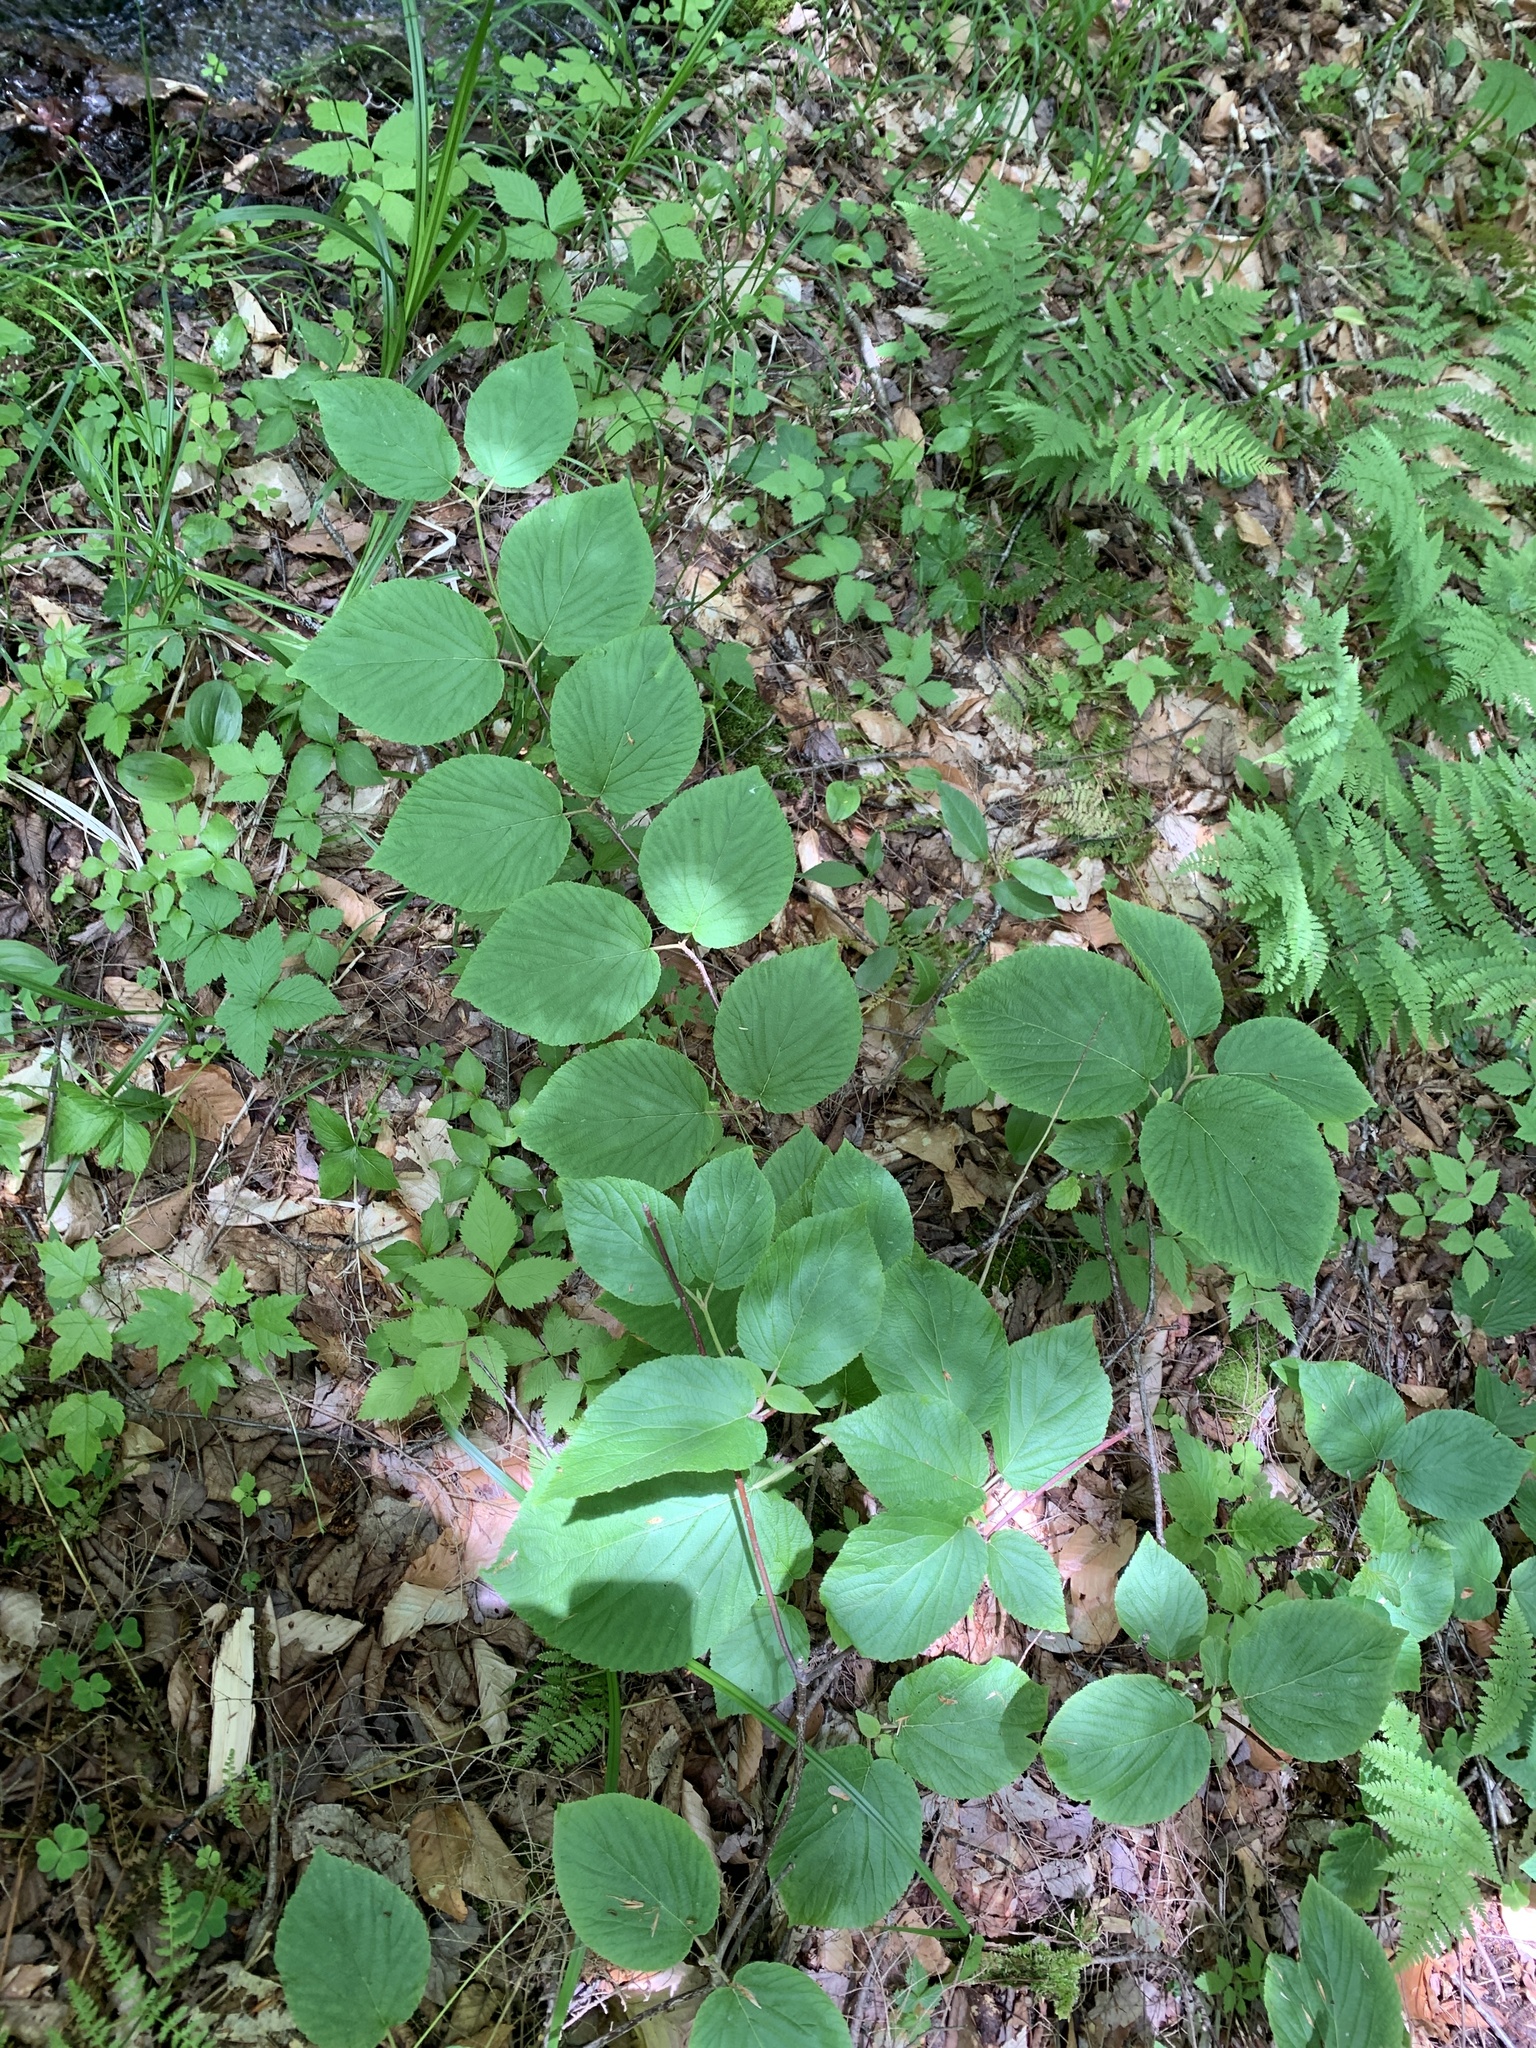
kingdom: Plantae
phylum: Tracheophyta
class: Magnoliopsida
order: Dipsacales
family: Viburnaceae
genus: Viburnum
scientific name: Viburnum lantanoides
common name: Hobblebush
